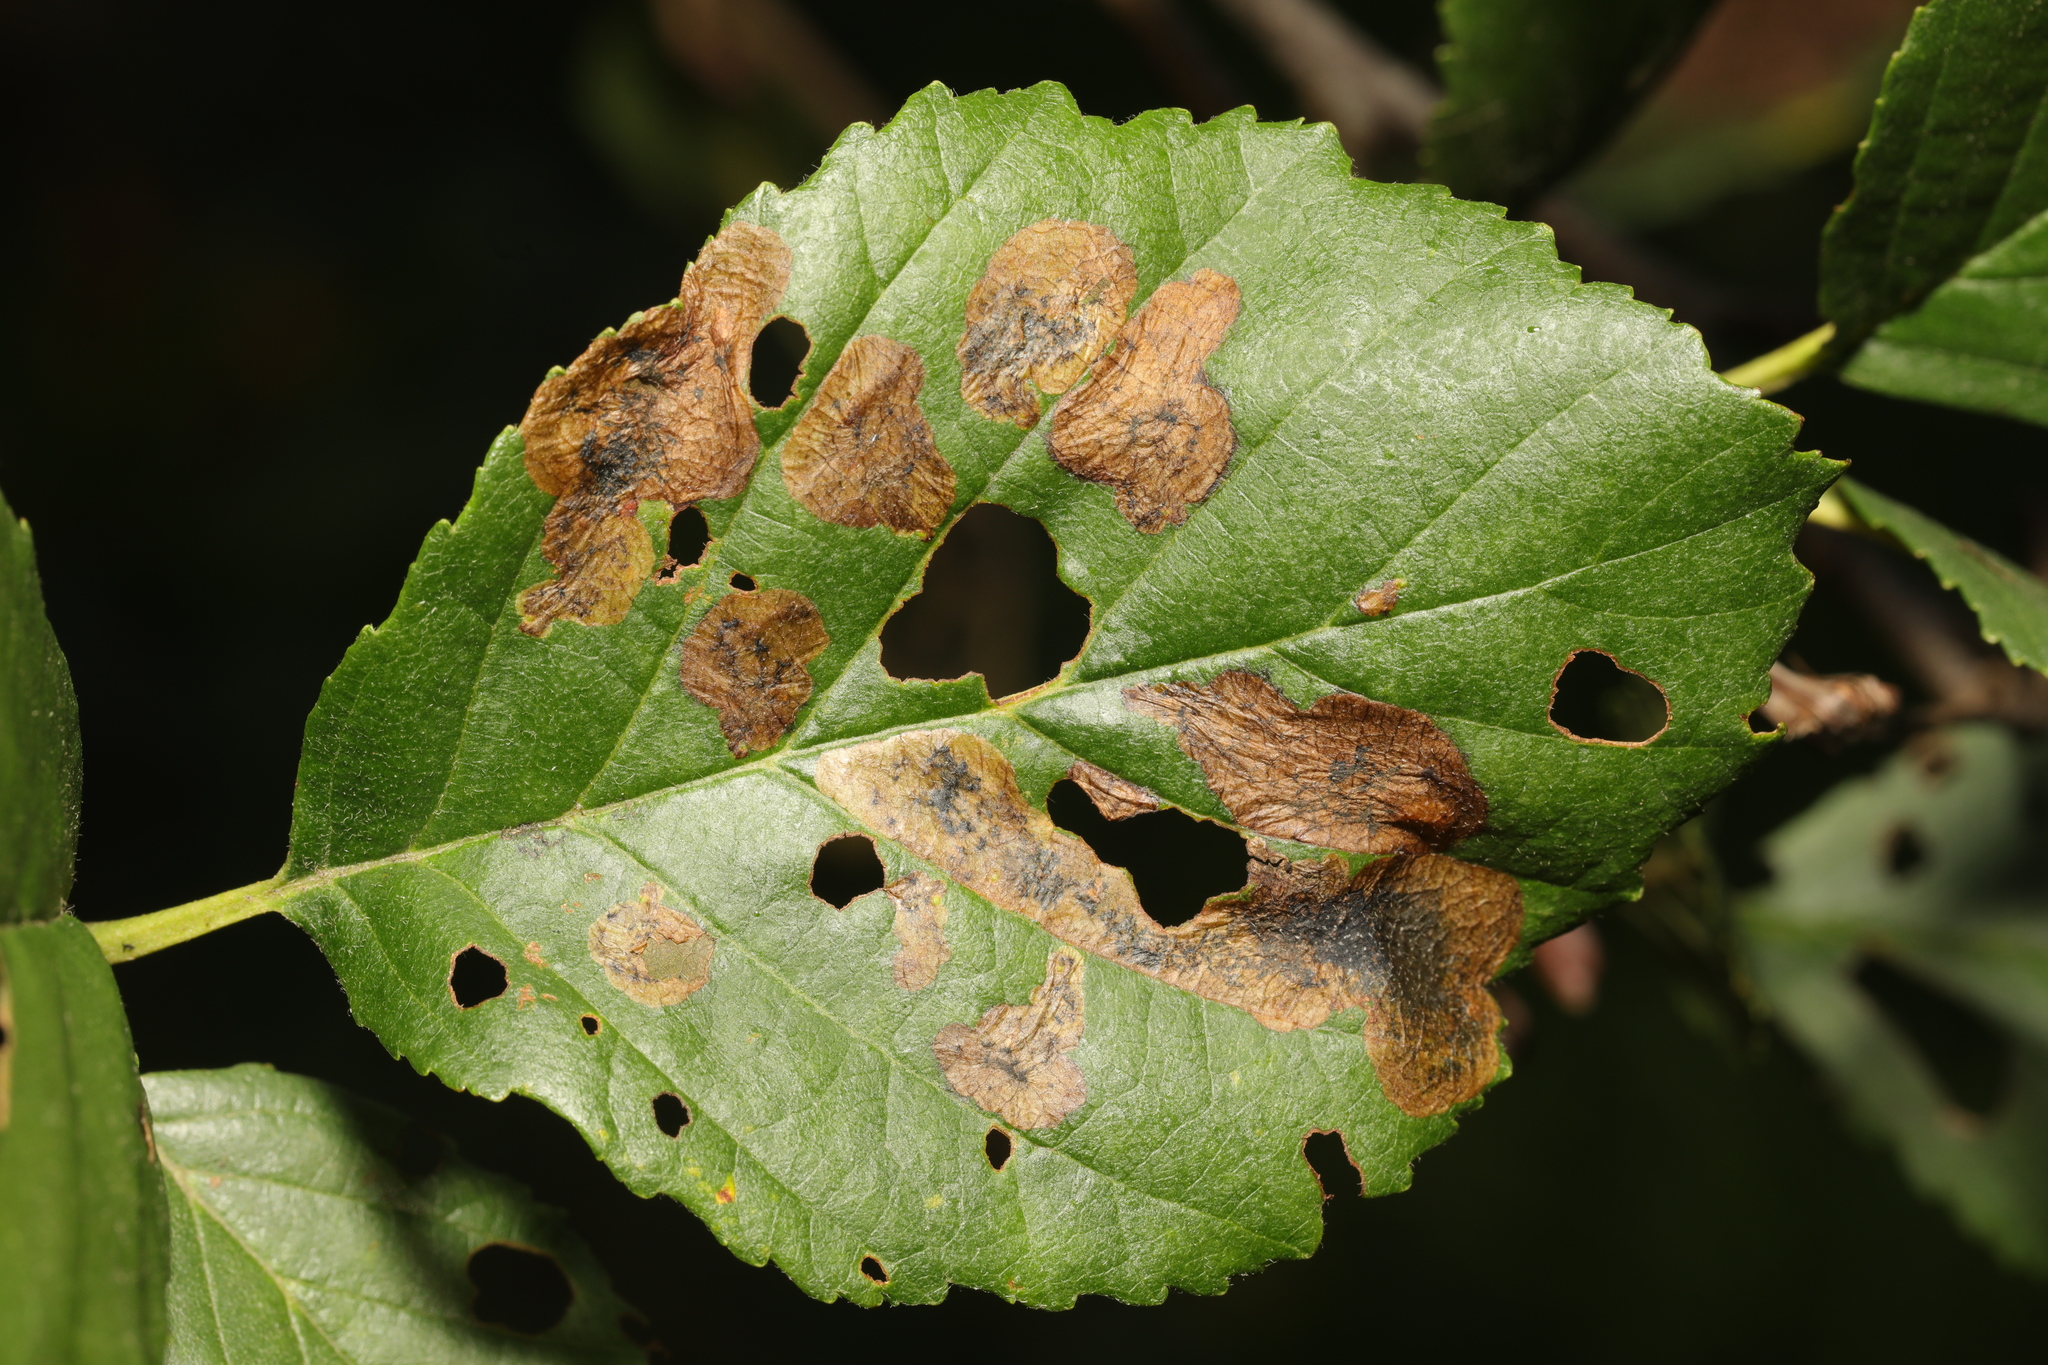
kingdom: Animalia
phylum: Arthropoda
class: Insecta
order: Hymenoptera
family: Tenthredinidae
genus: Fenusa
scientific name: Fenusa dohrnii
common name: European alder leafminer
